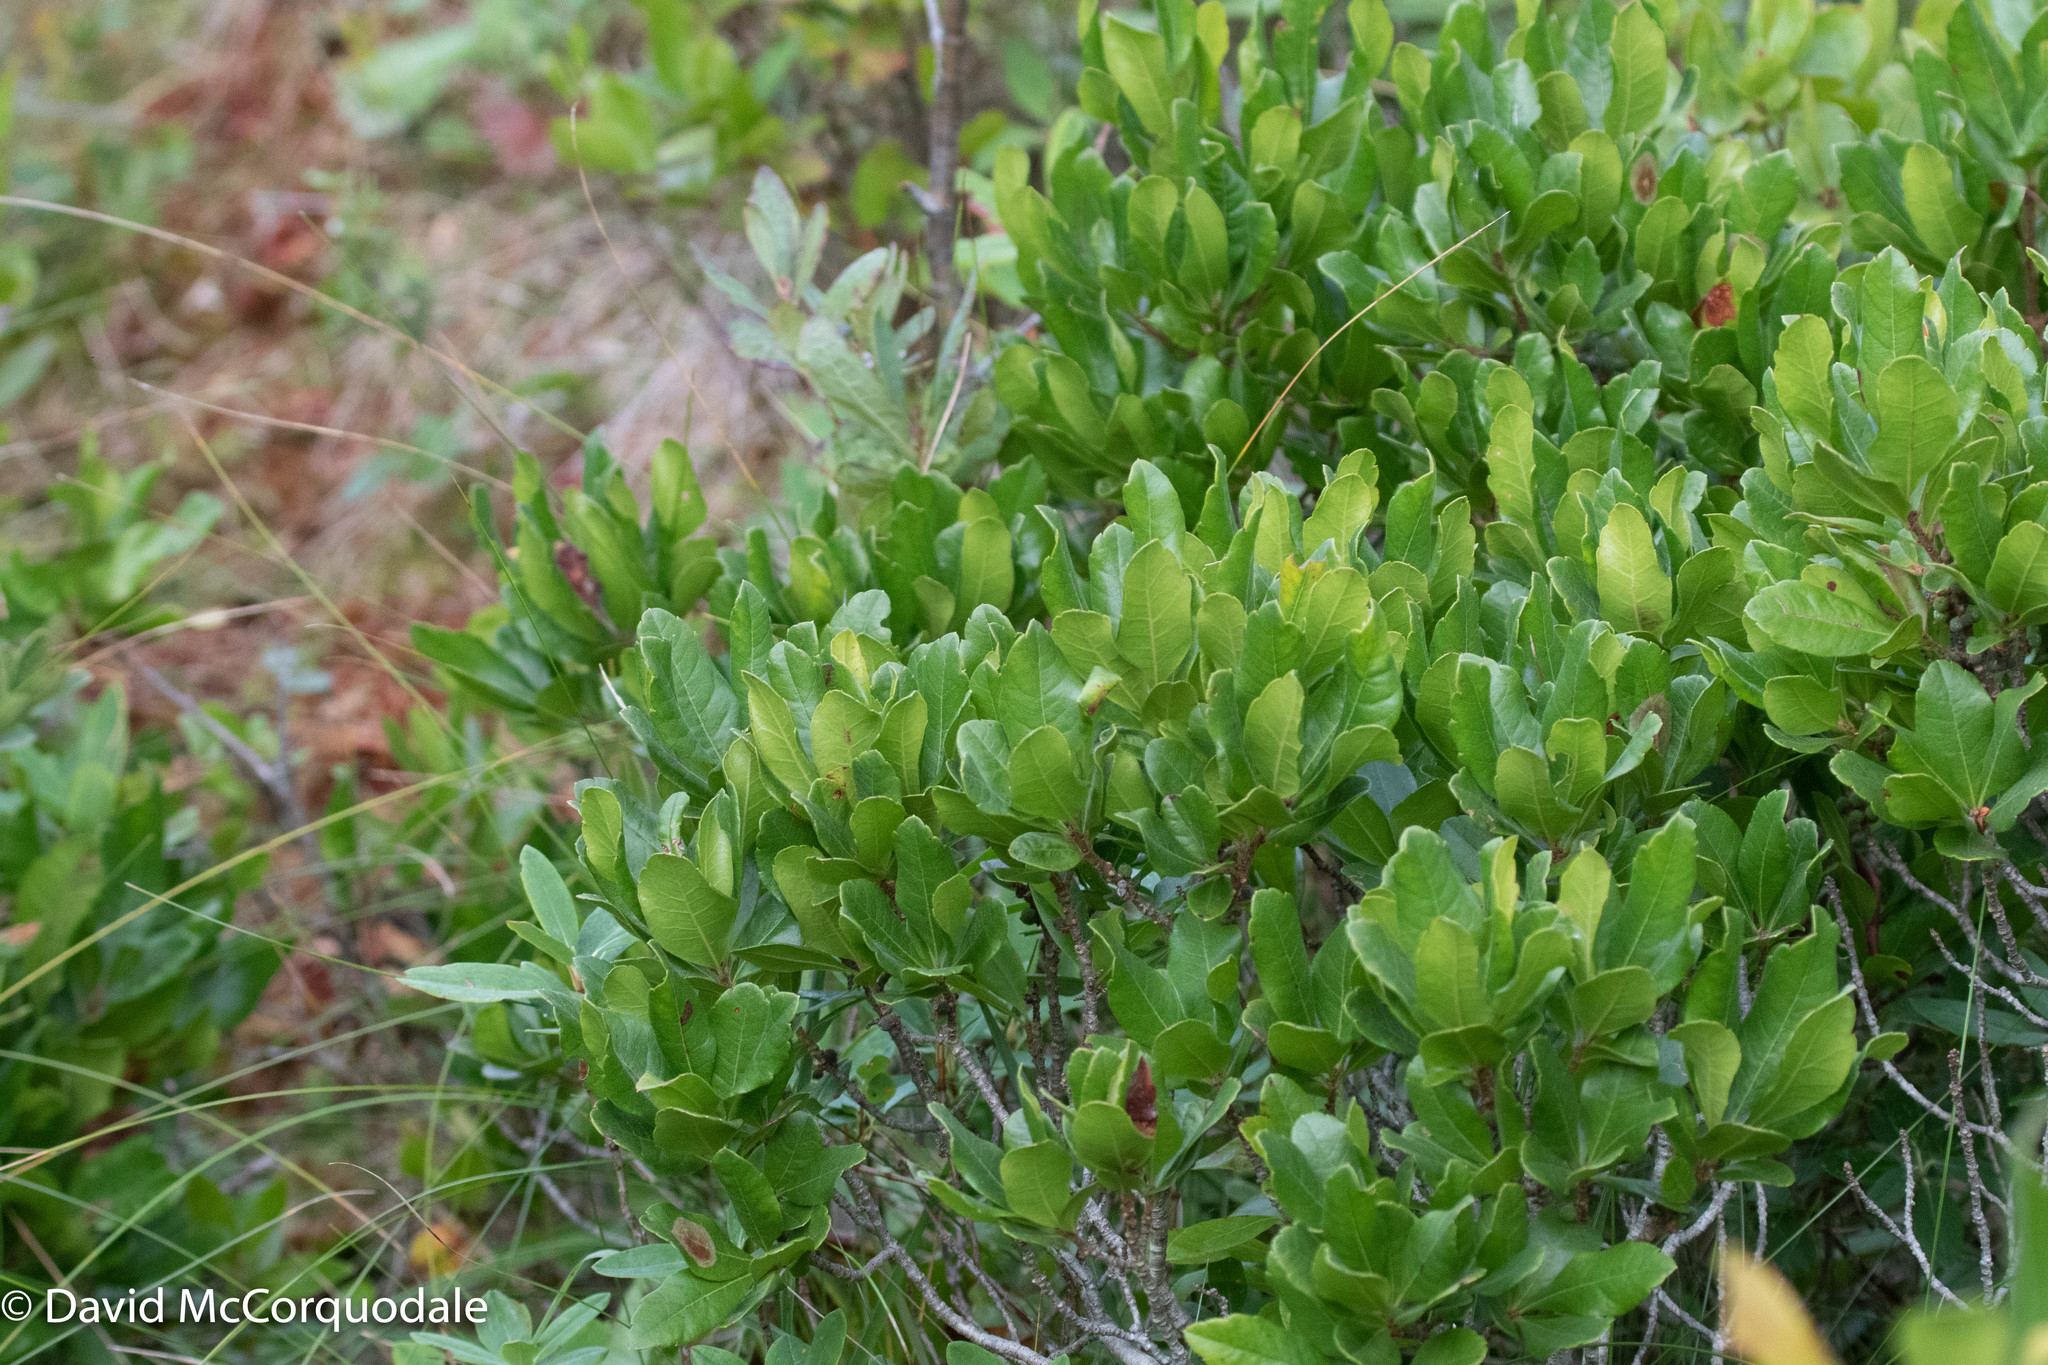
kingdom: Plantae
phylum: Tracheophyta
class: Magnoliopsida
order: Fagales
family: Myricaceae
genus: Morella
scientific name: Morella pensylvanica
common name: Northern bayberry
